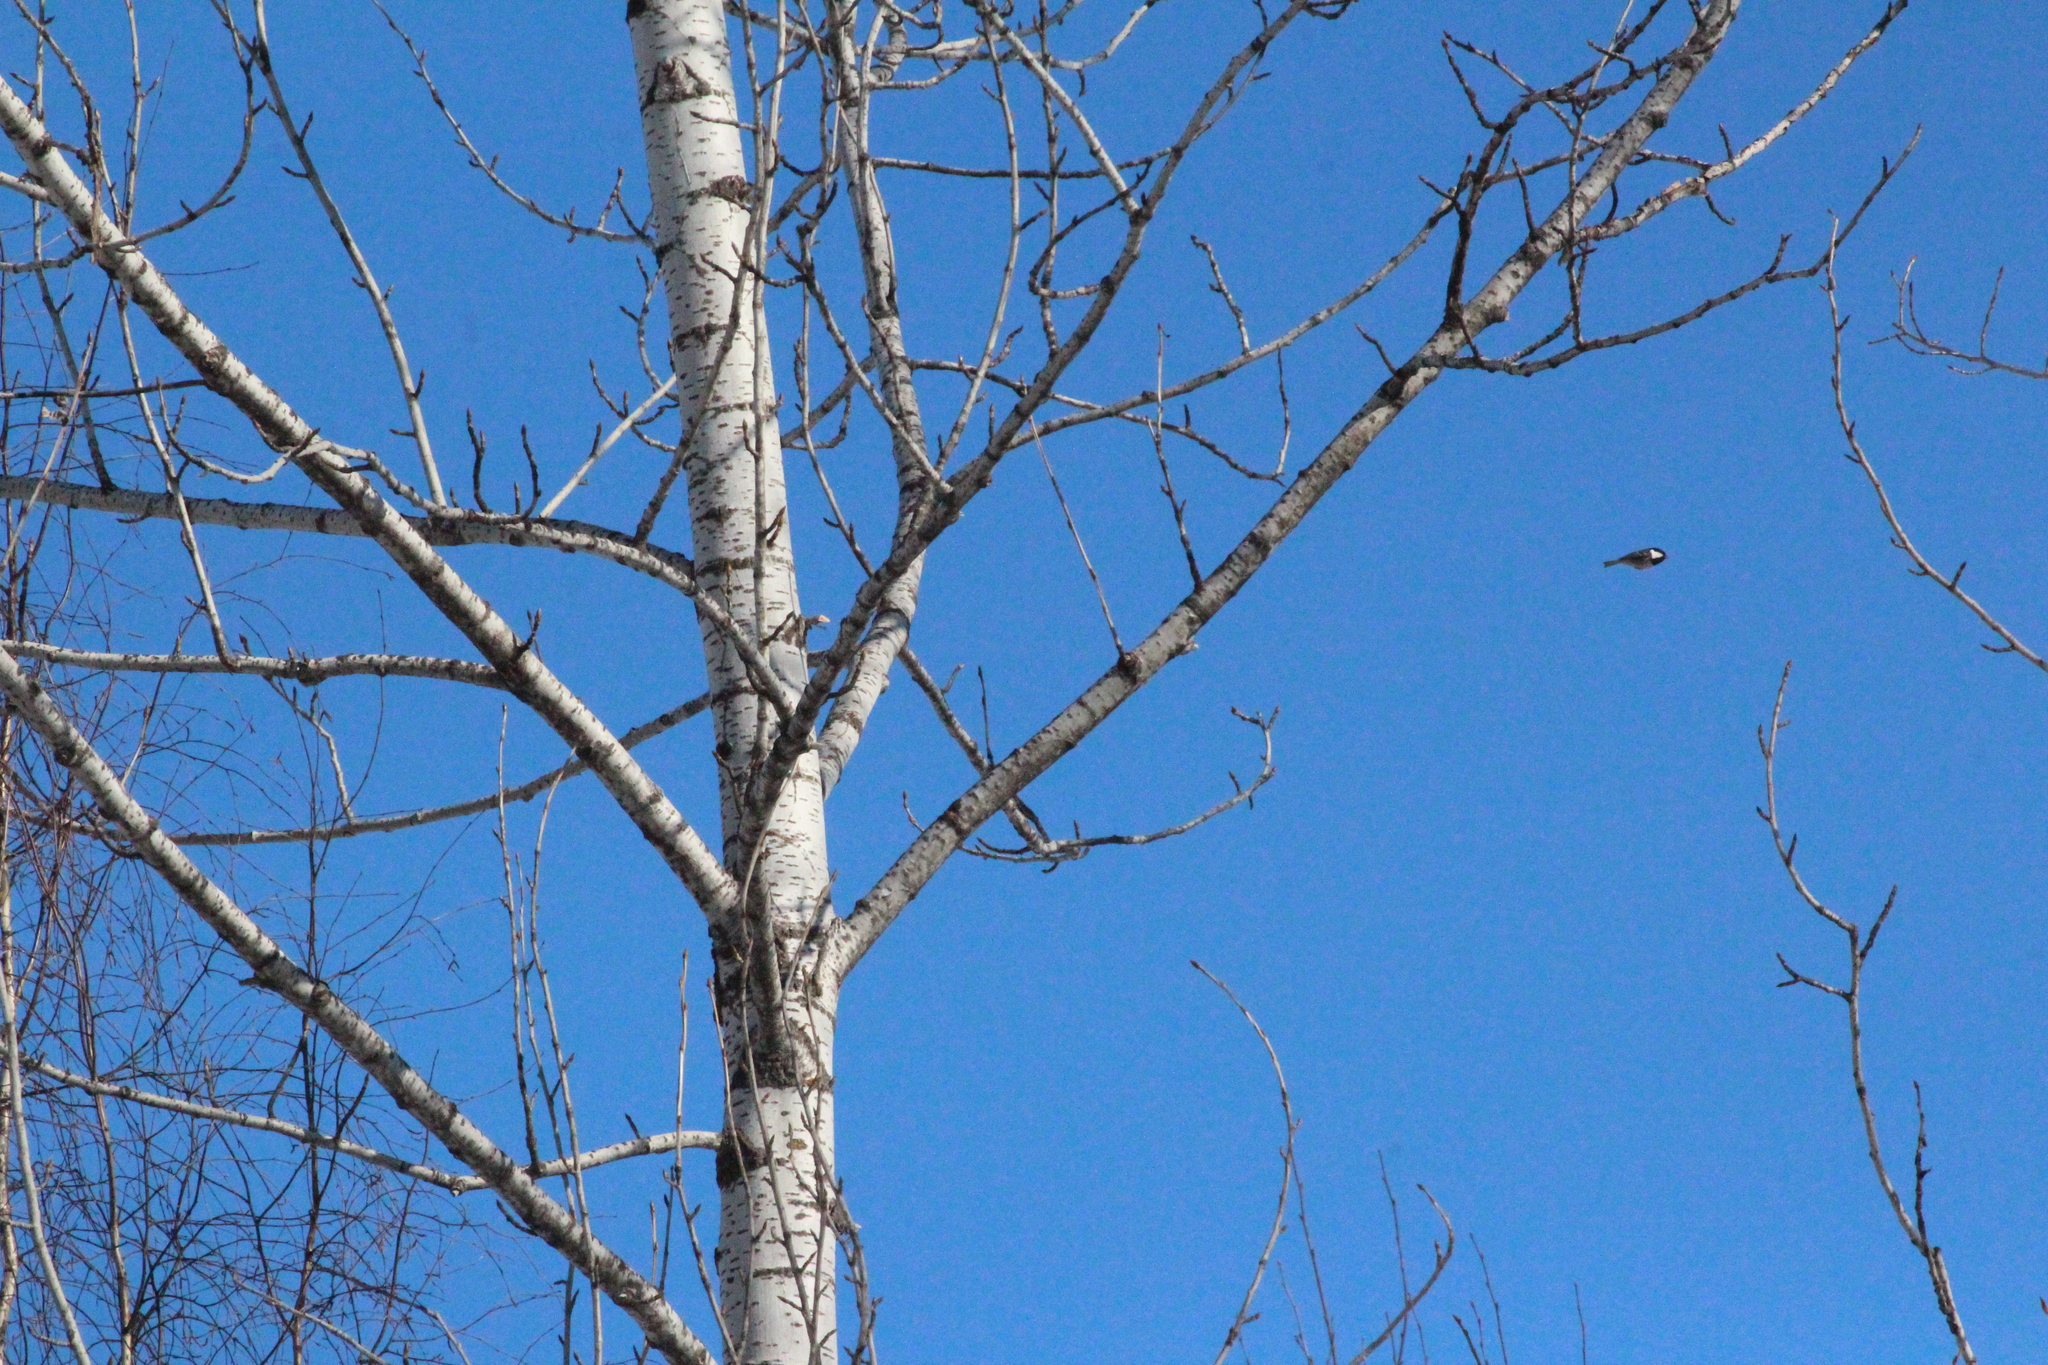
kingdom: Animalia
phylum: Chordata
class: Aves
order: Passeriformes
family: Paridae
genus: Parus
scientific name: Parus major
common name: Great tit
